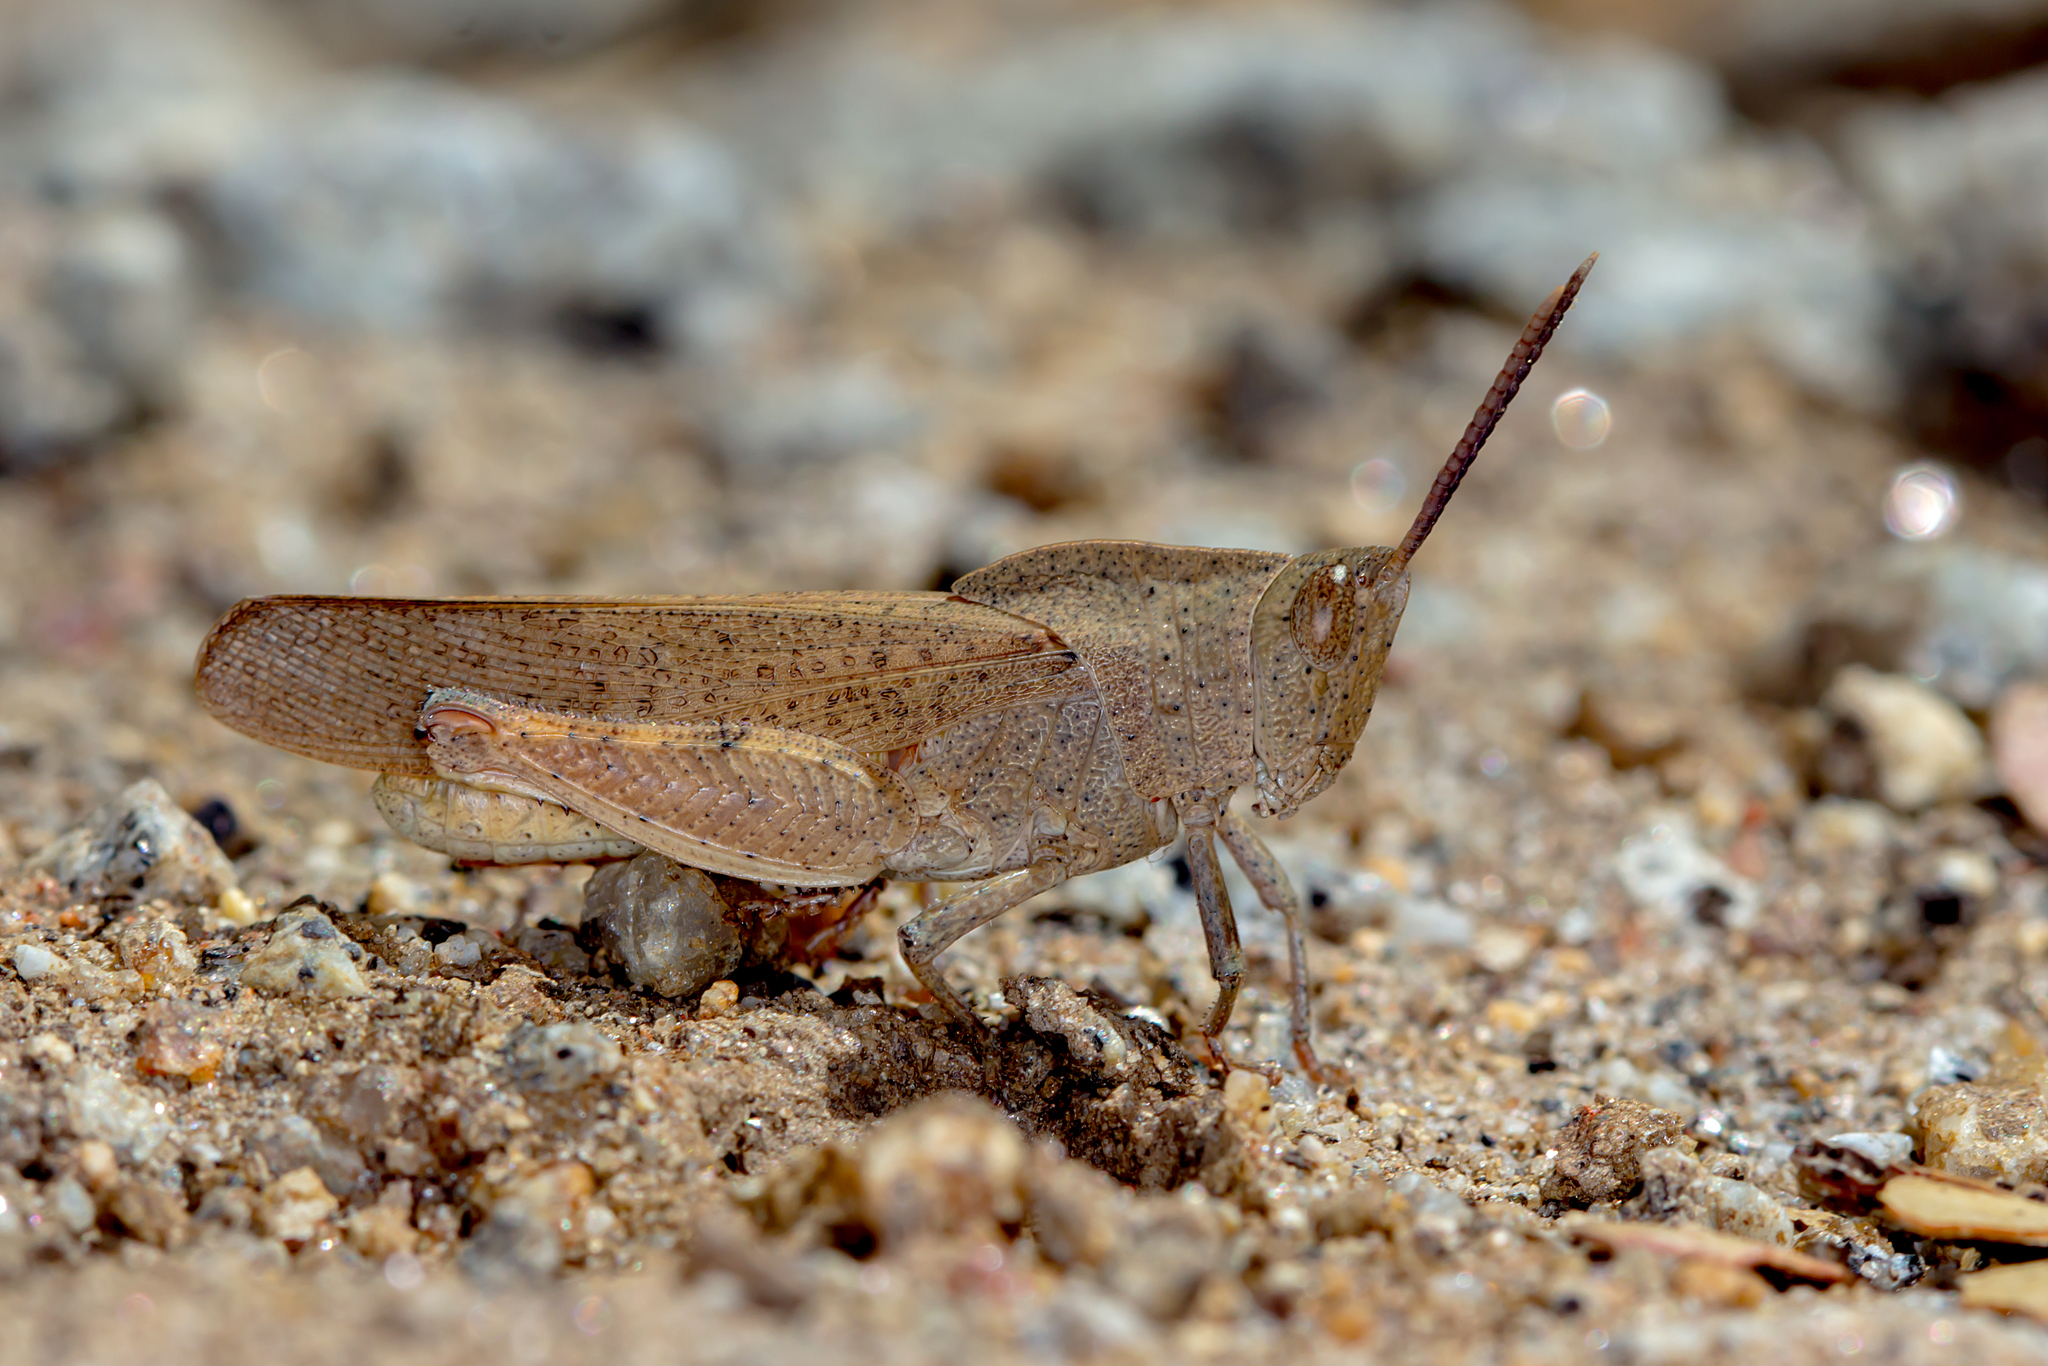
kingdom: Animalia
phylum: Arthropoda
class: Insecta
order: Orthoptera
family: Acrididae
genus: Goniaea
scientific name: Goniaea australasiae
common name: Gumleaf grasshopper
